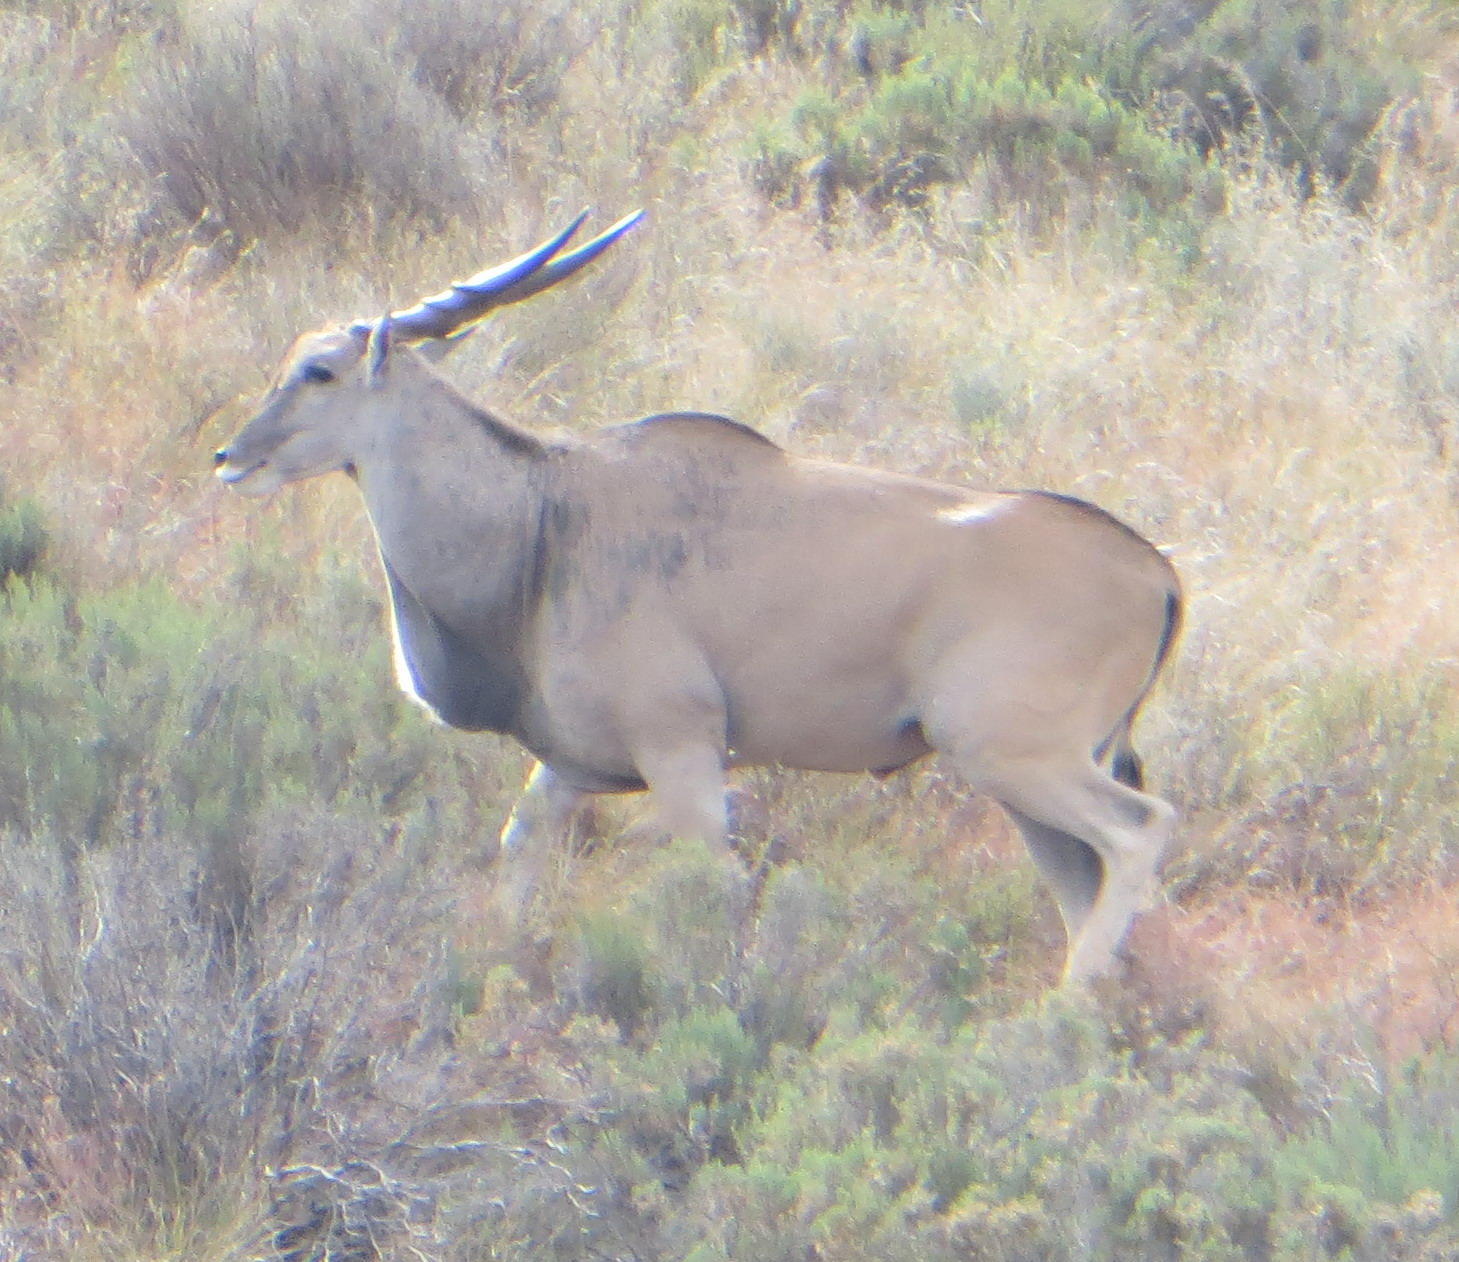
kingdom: Animalia
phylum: Chordata
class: Mammalia
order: Artiodactyla
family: Bovidae
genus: Taurotragus
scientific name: Taurotragus oryx
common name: Common eland
